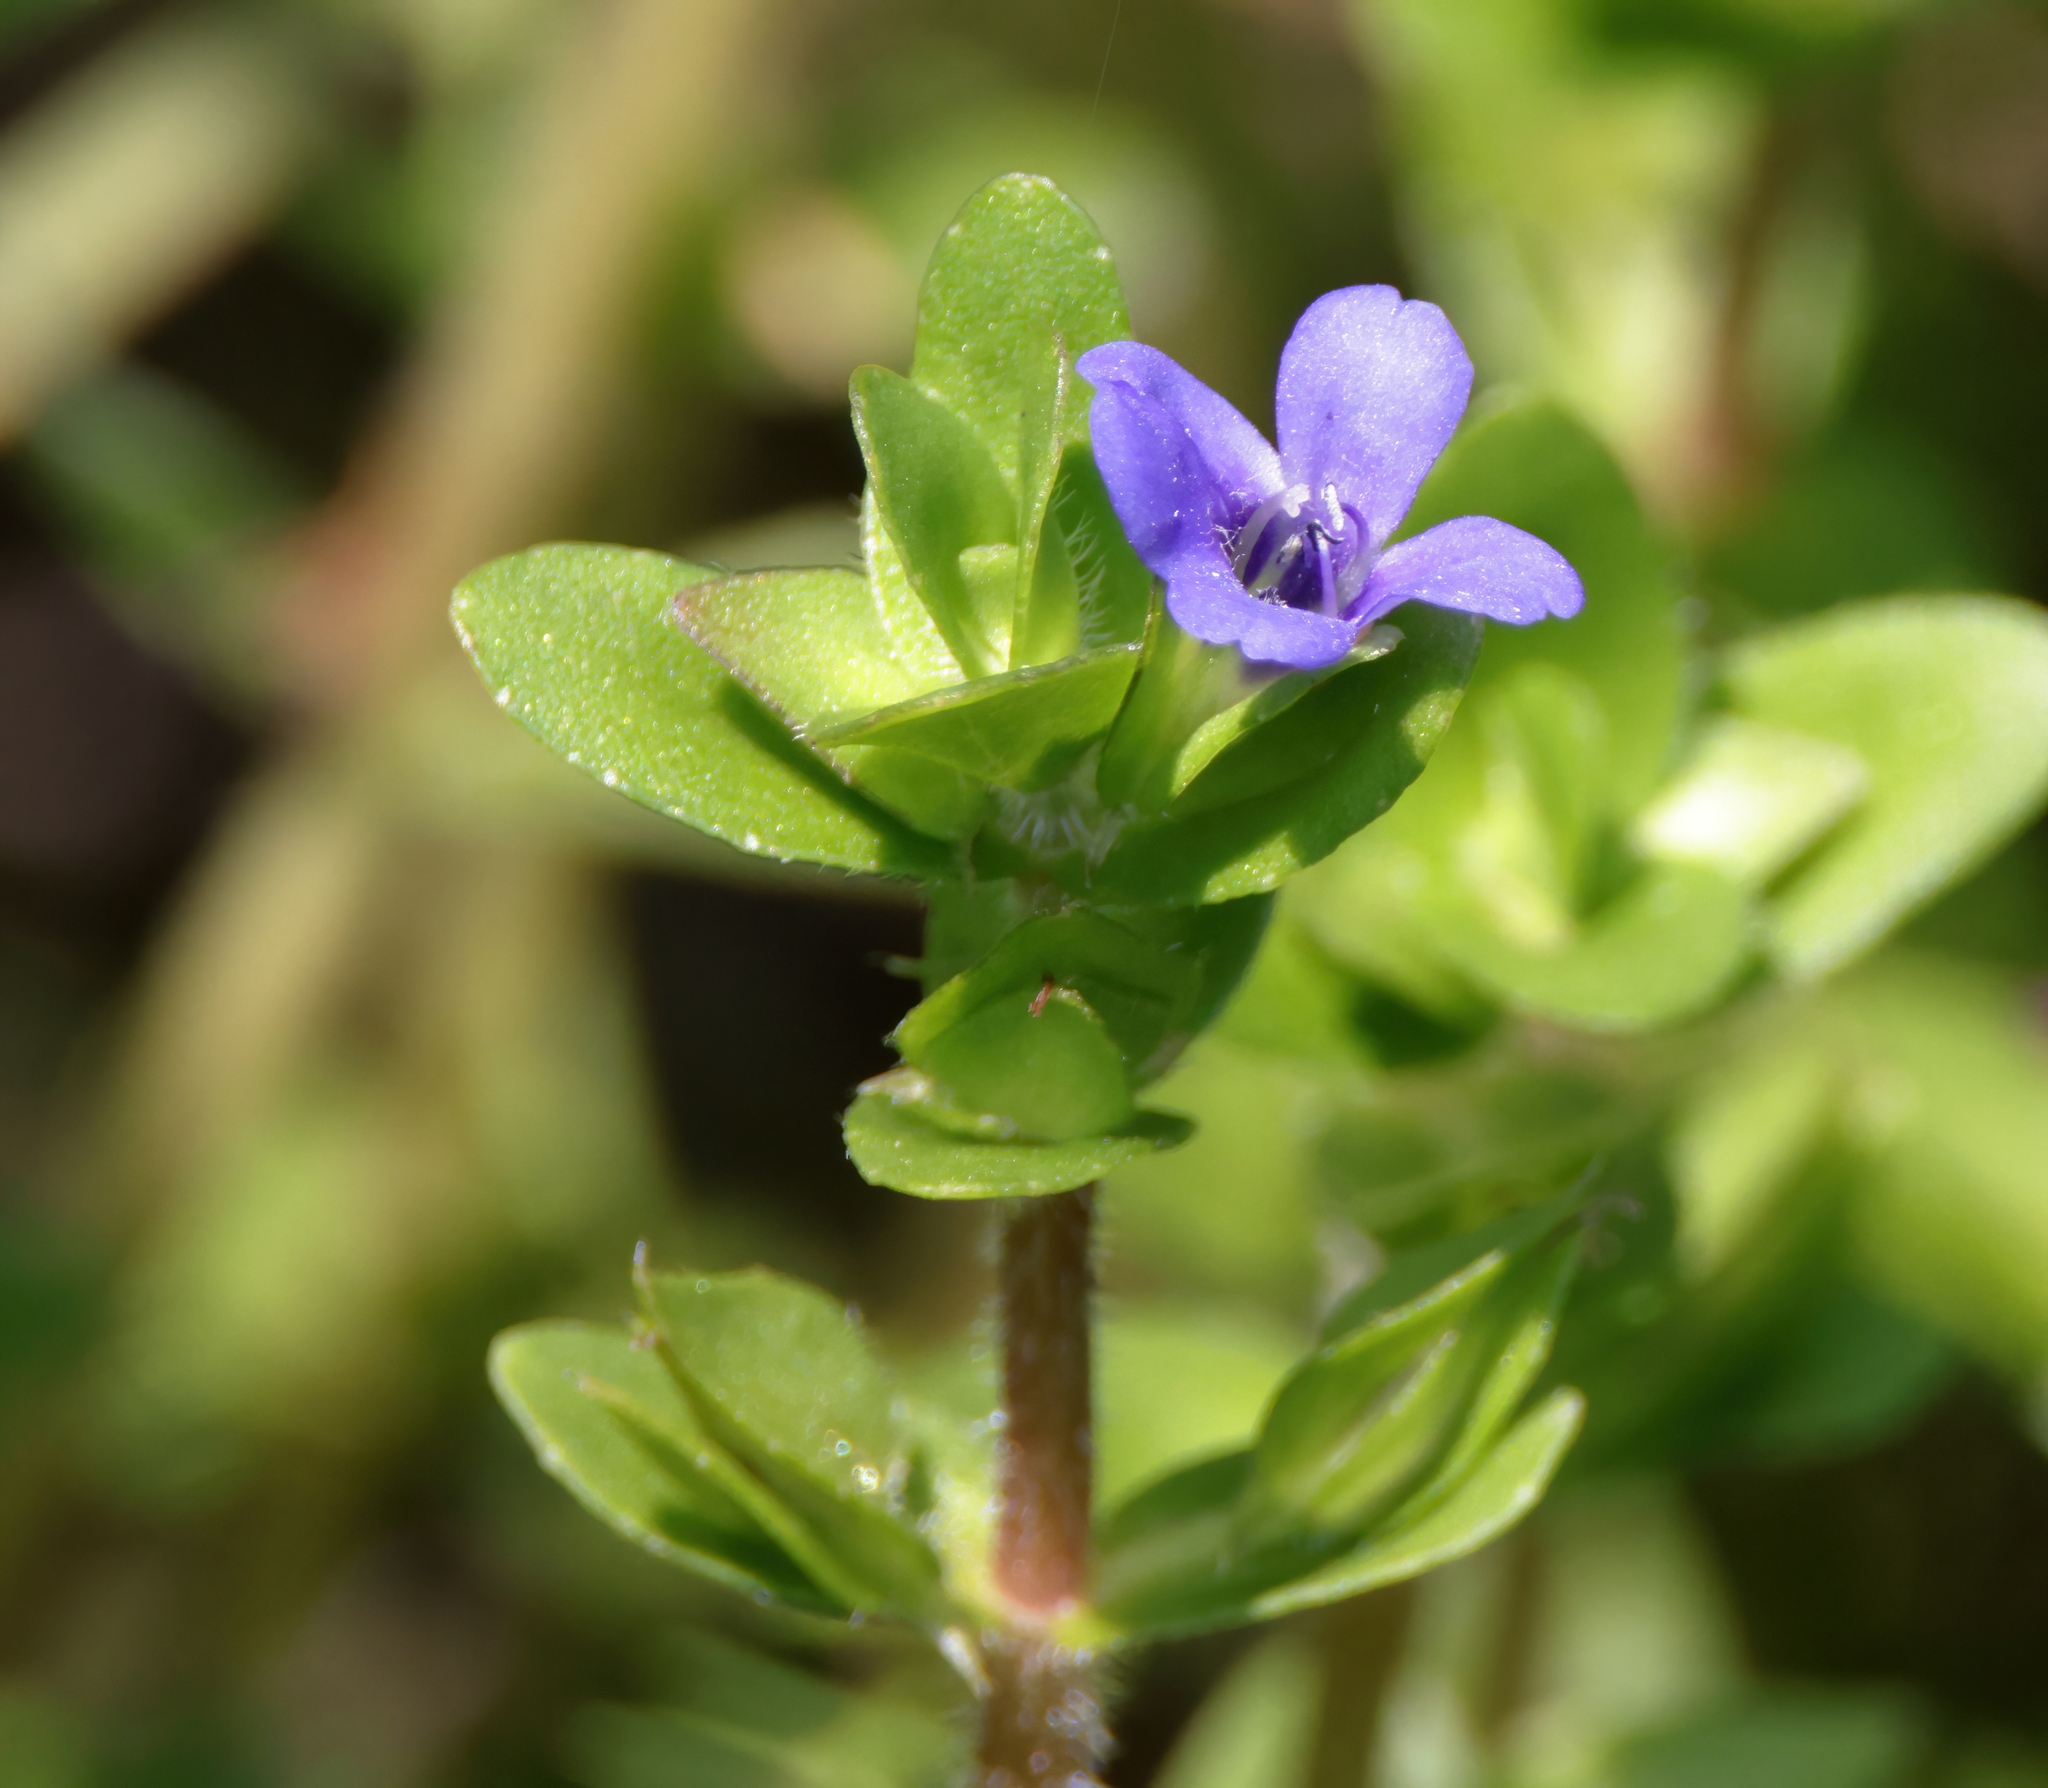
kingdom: Plantae
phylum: Tracheophyta
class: Magnoliopsida
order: Lamiales
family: Plantaginaceae
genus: Bacopa
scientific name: Bacopa caroliniana
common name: Lemon bacopa
